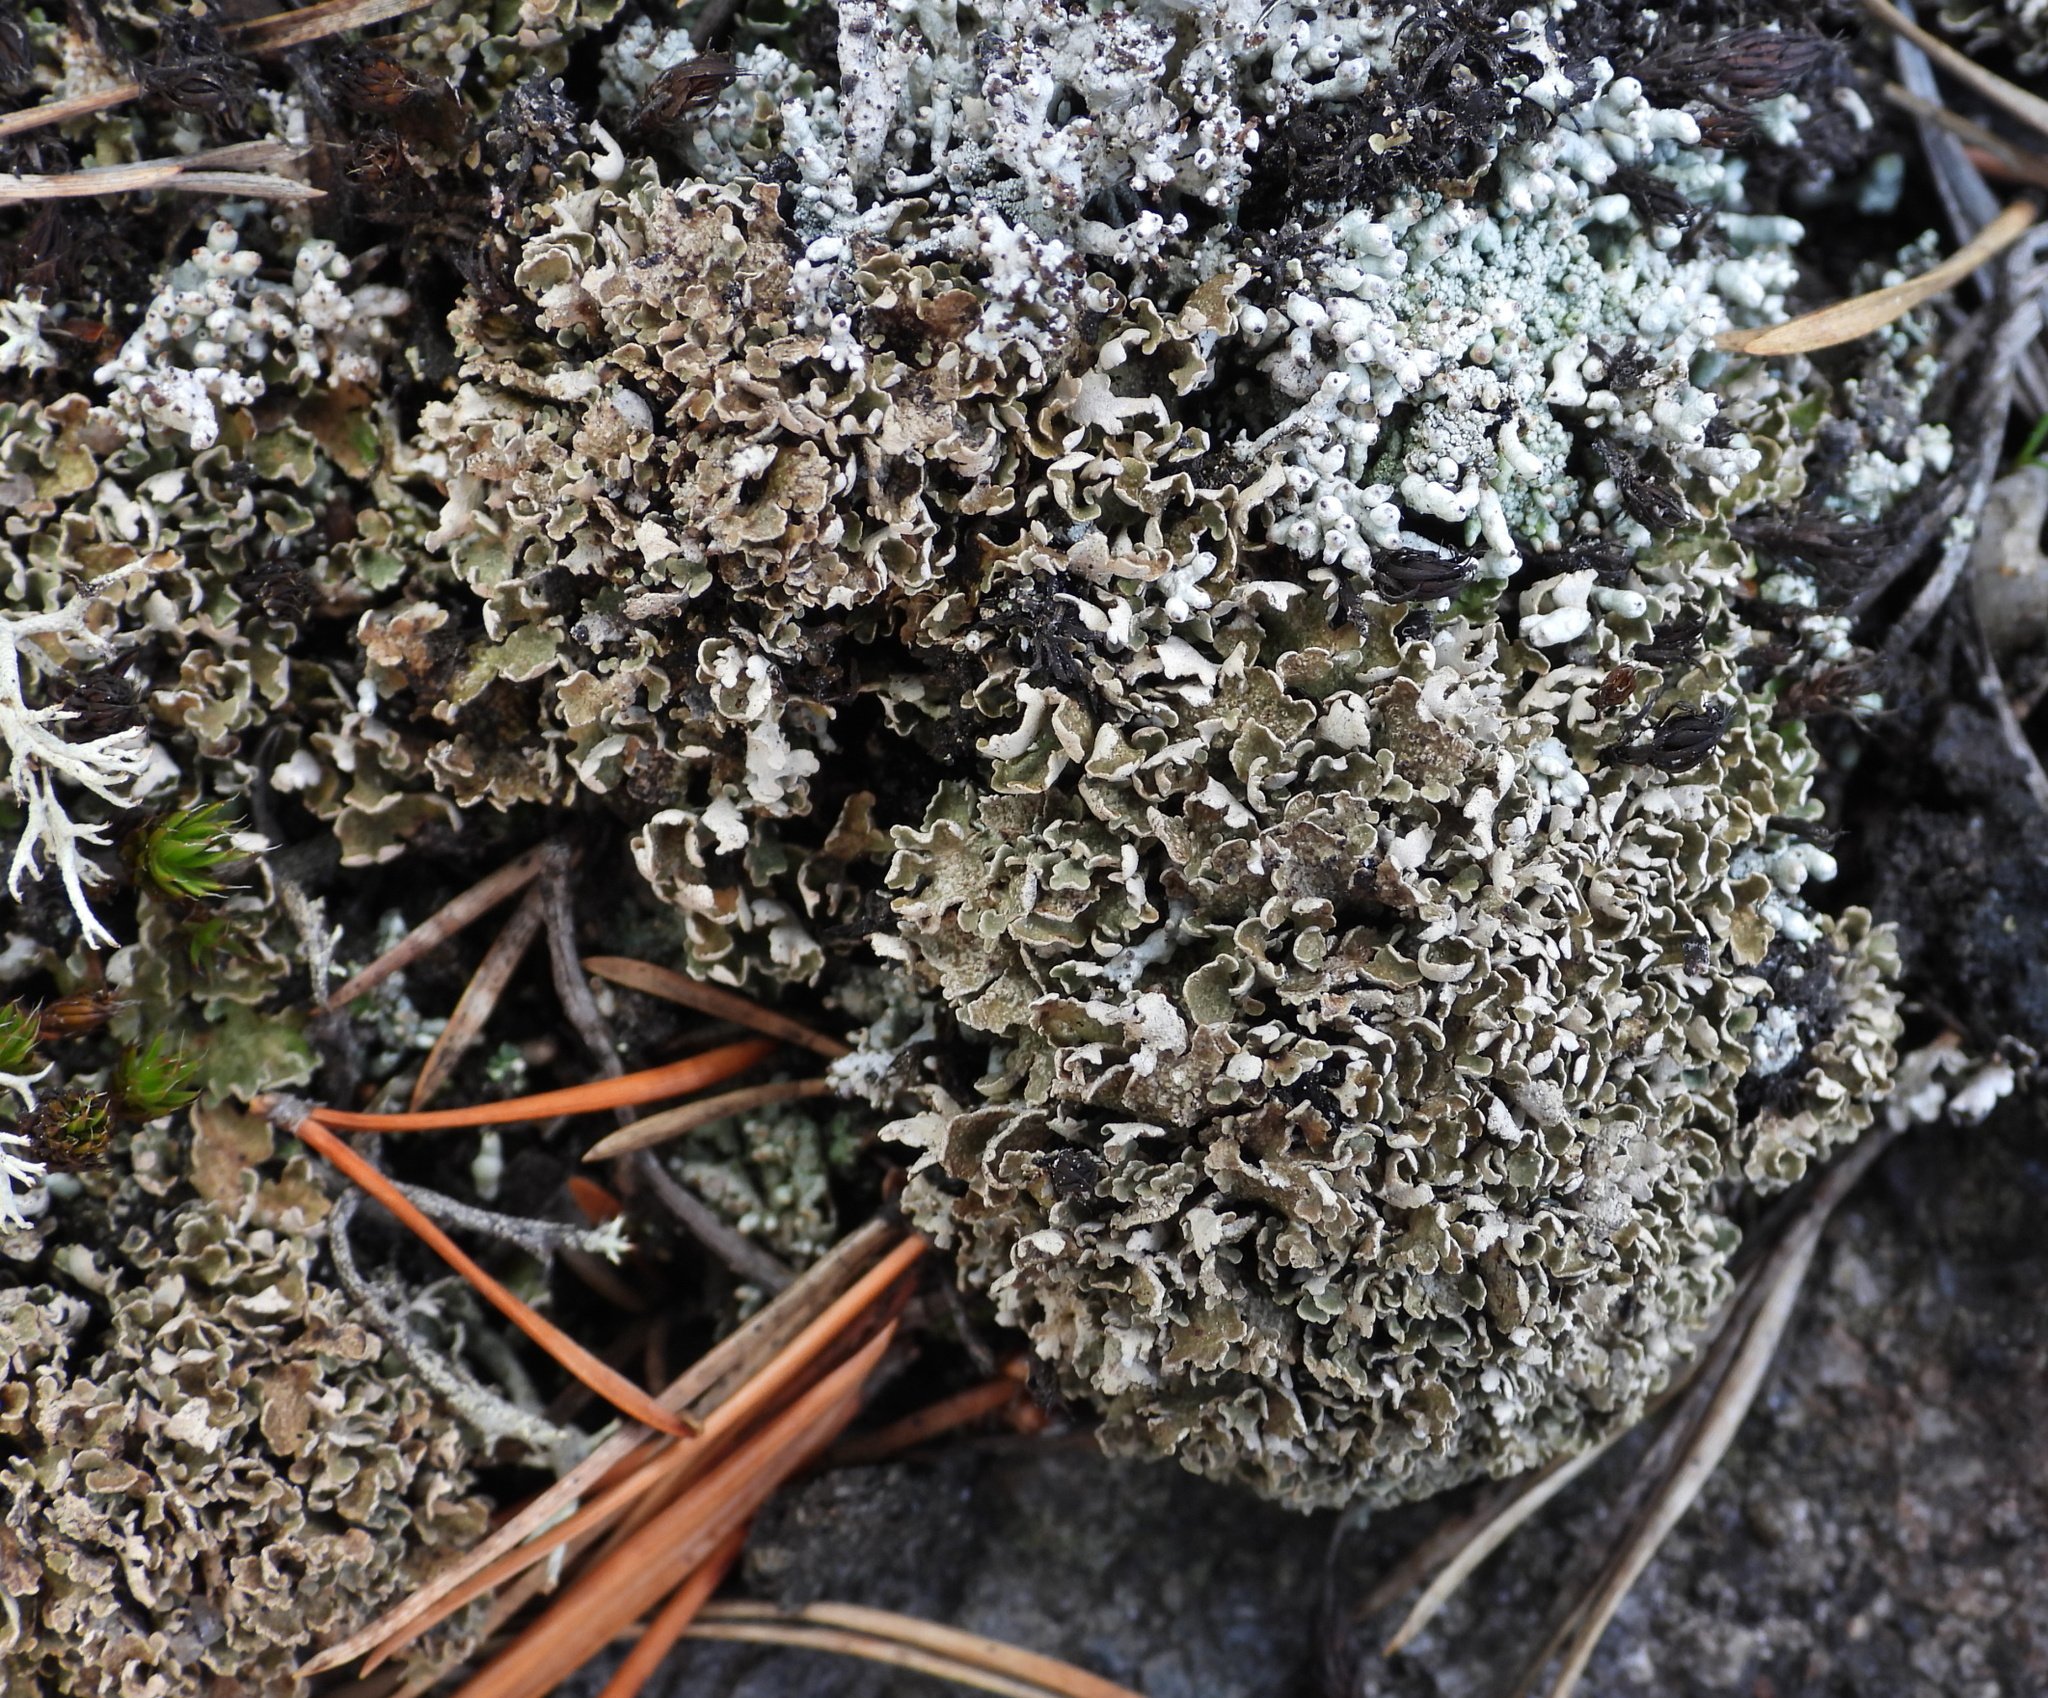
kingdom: Fungi
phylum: Ascomycota
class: Lecanoromycetes
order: Lecanorales
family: Cladoniaceae
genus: Cladonia
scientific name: Cladonia strepsilis
